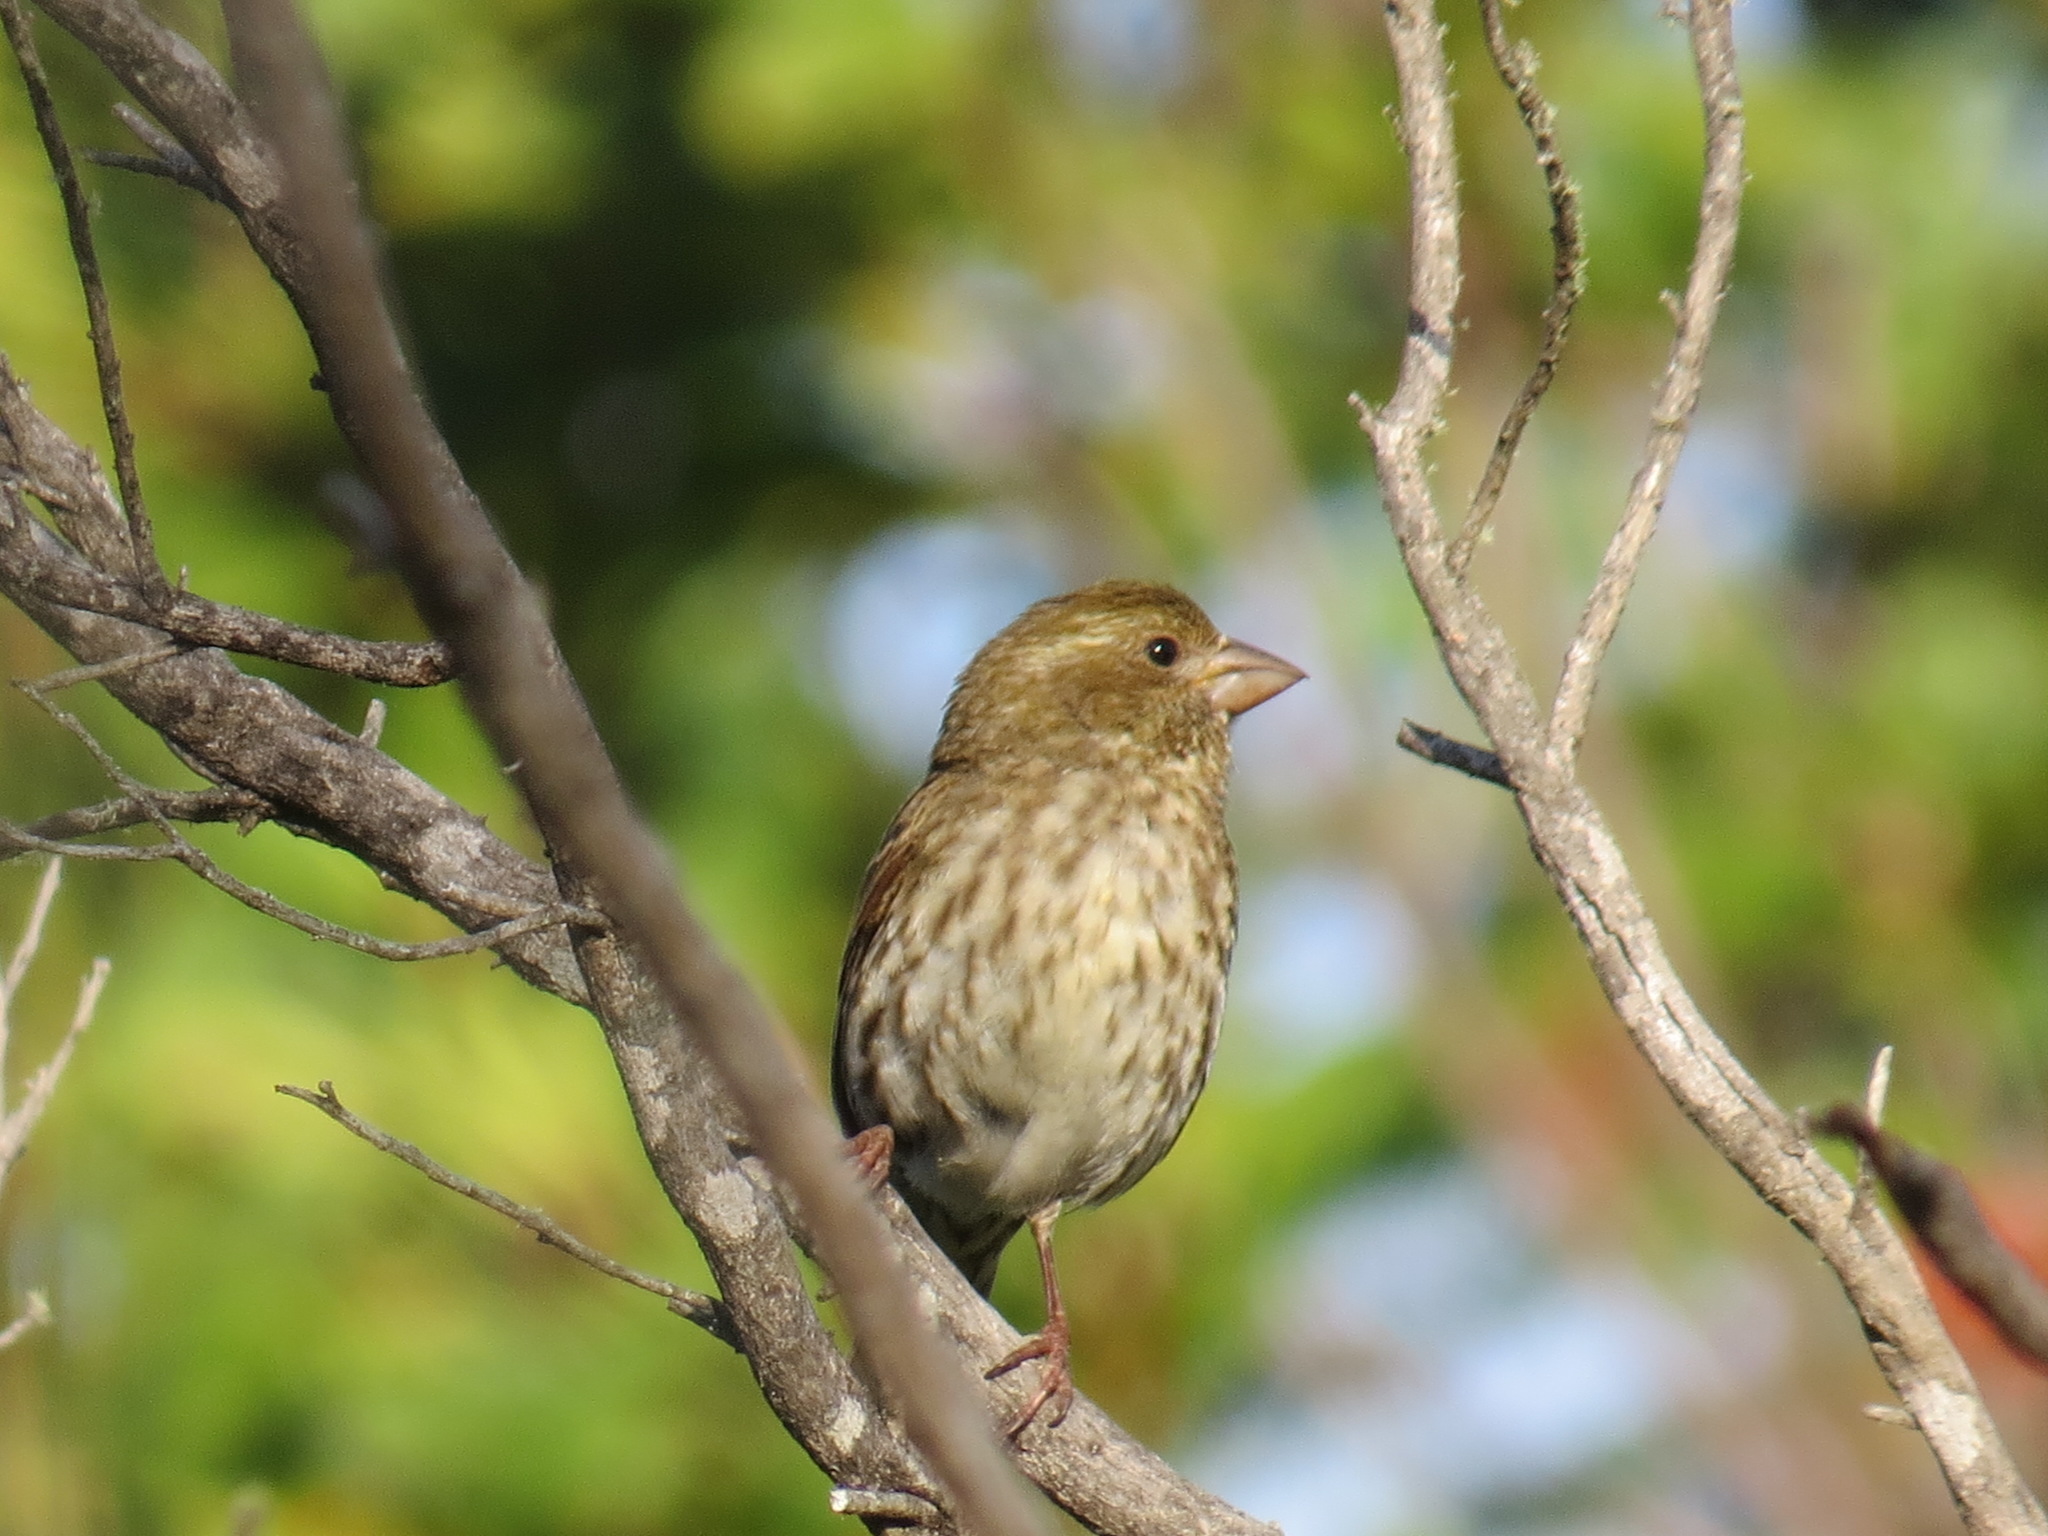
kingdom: Animalia
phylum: Chordata
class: Aves
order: Passeriformes
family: Fringillidae
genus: Haemorhous
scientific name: Haemorhous purpureus
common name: Purple finch
